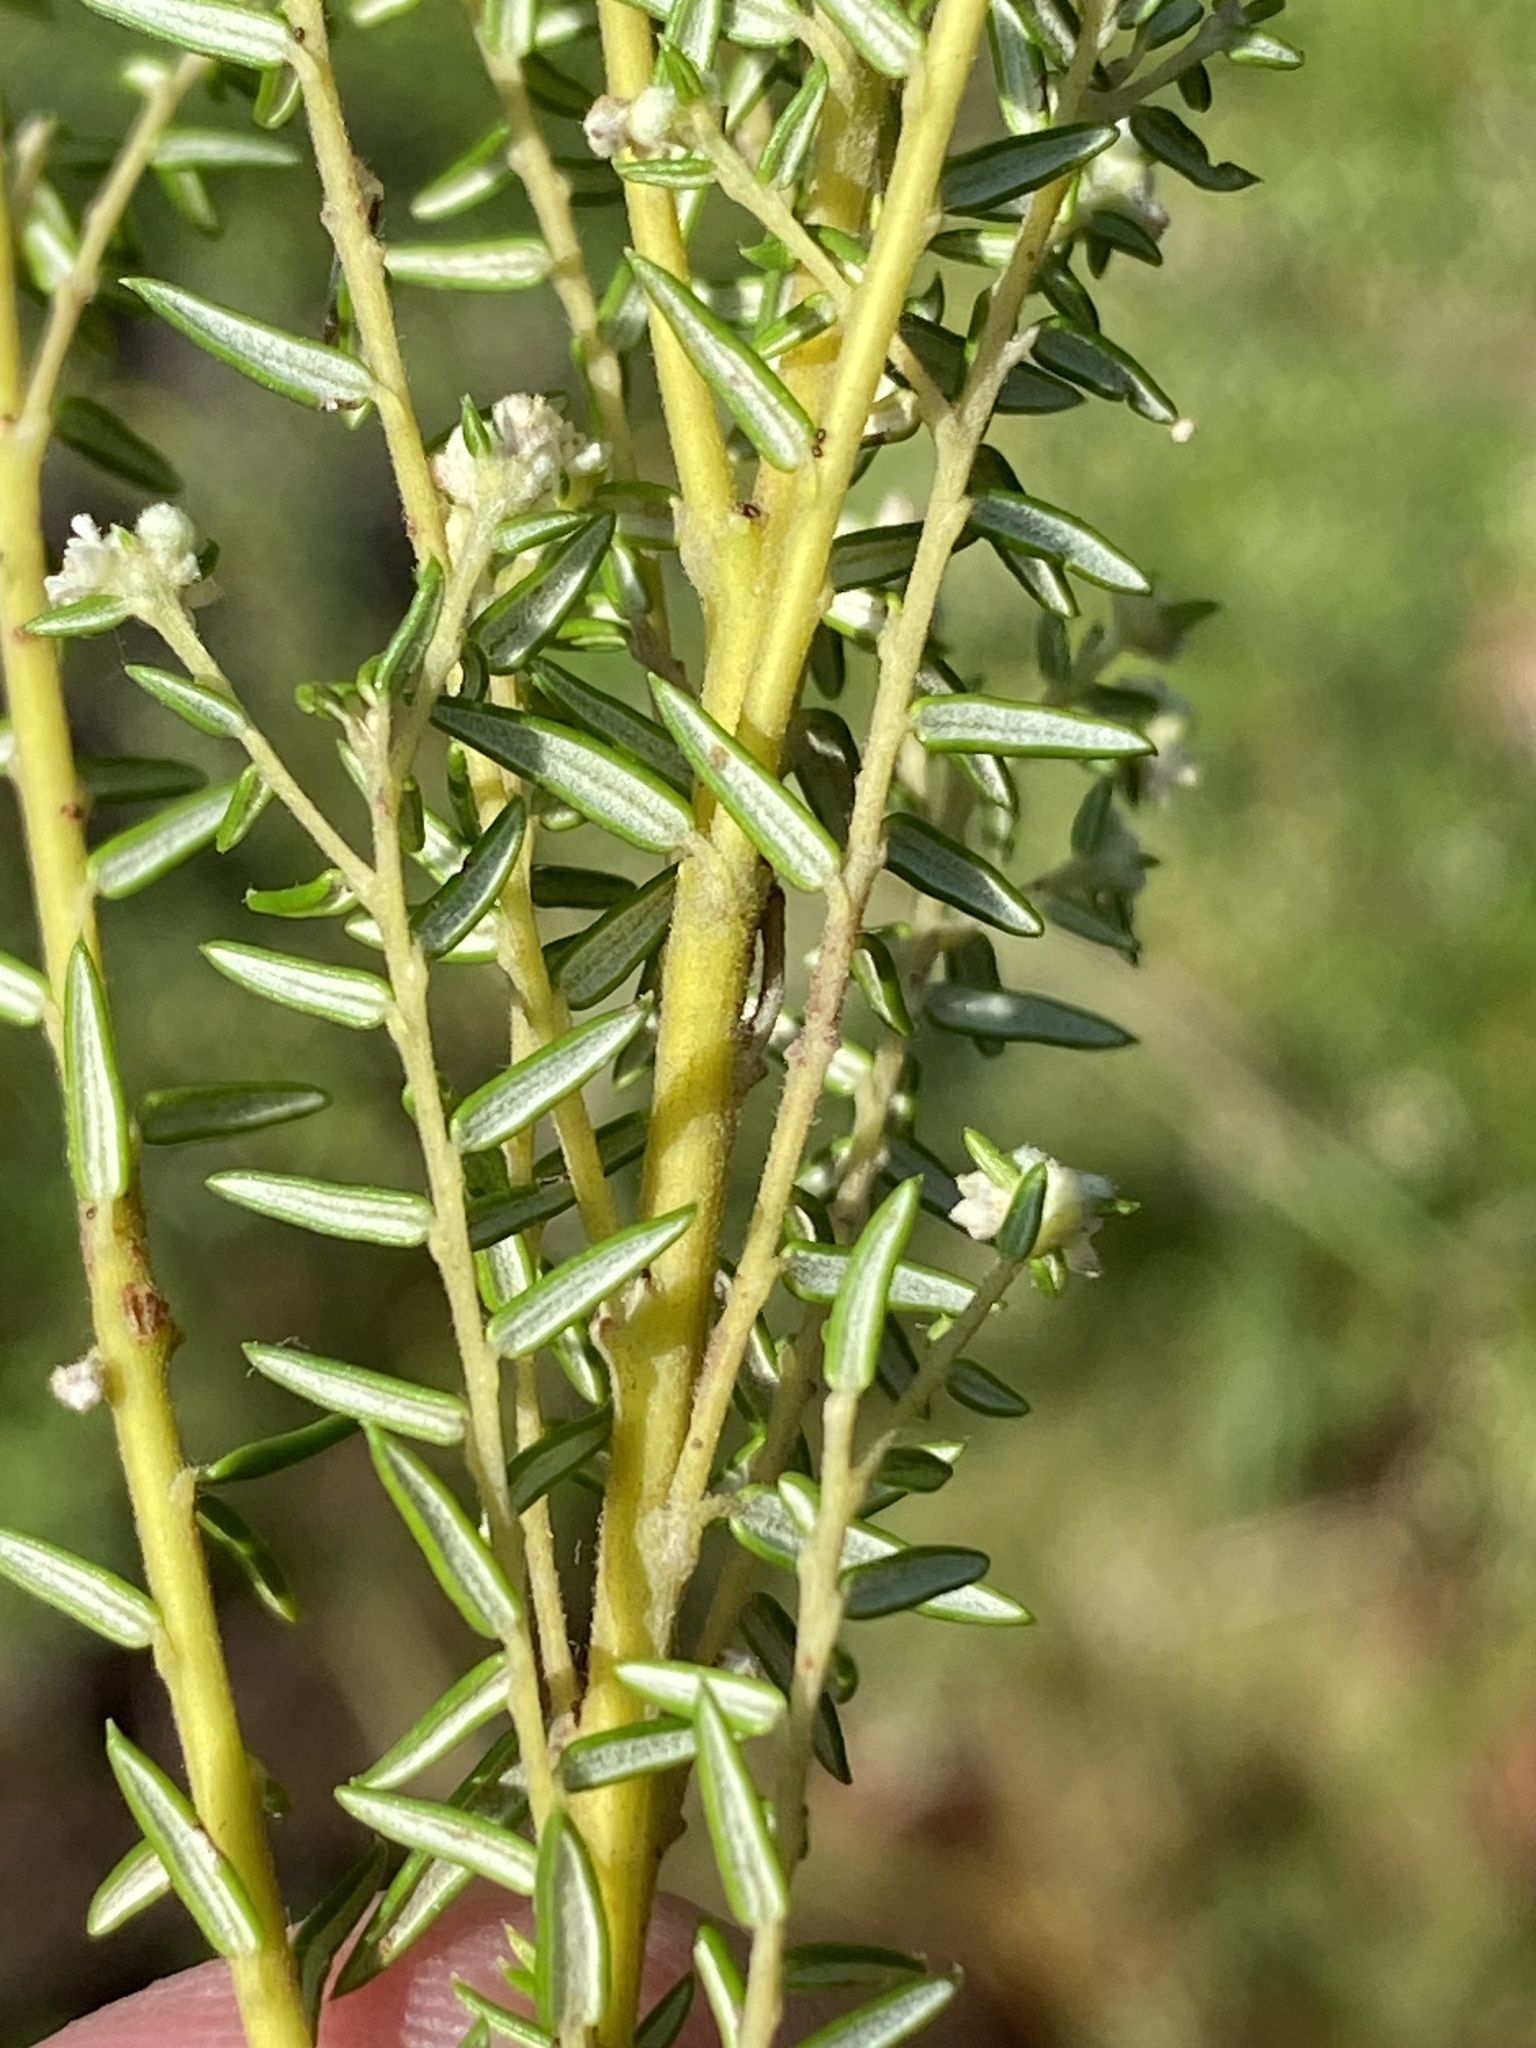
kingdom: Plantae
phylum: Tracheophyta
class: Magnoliopsida
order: Rosales
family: Rhamnaceae
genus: Phylica
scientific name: Phylica rubra
